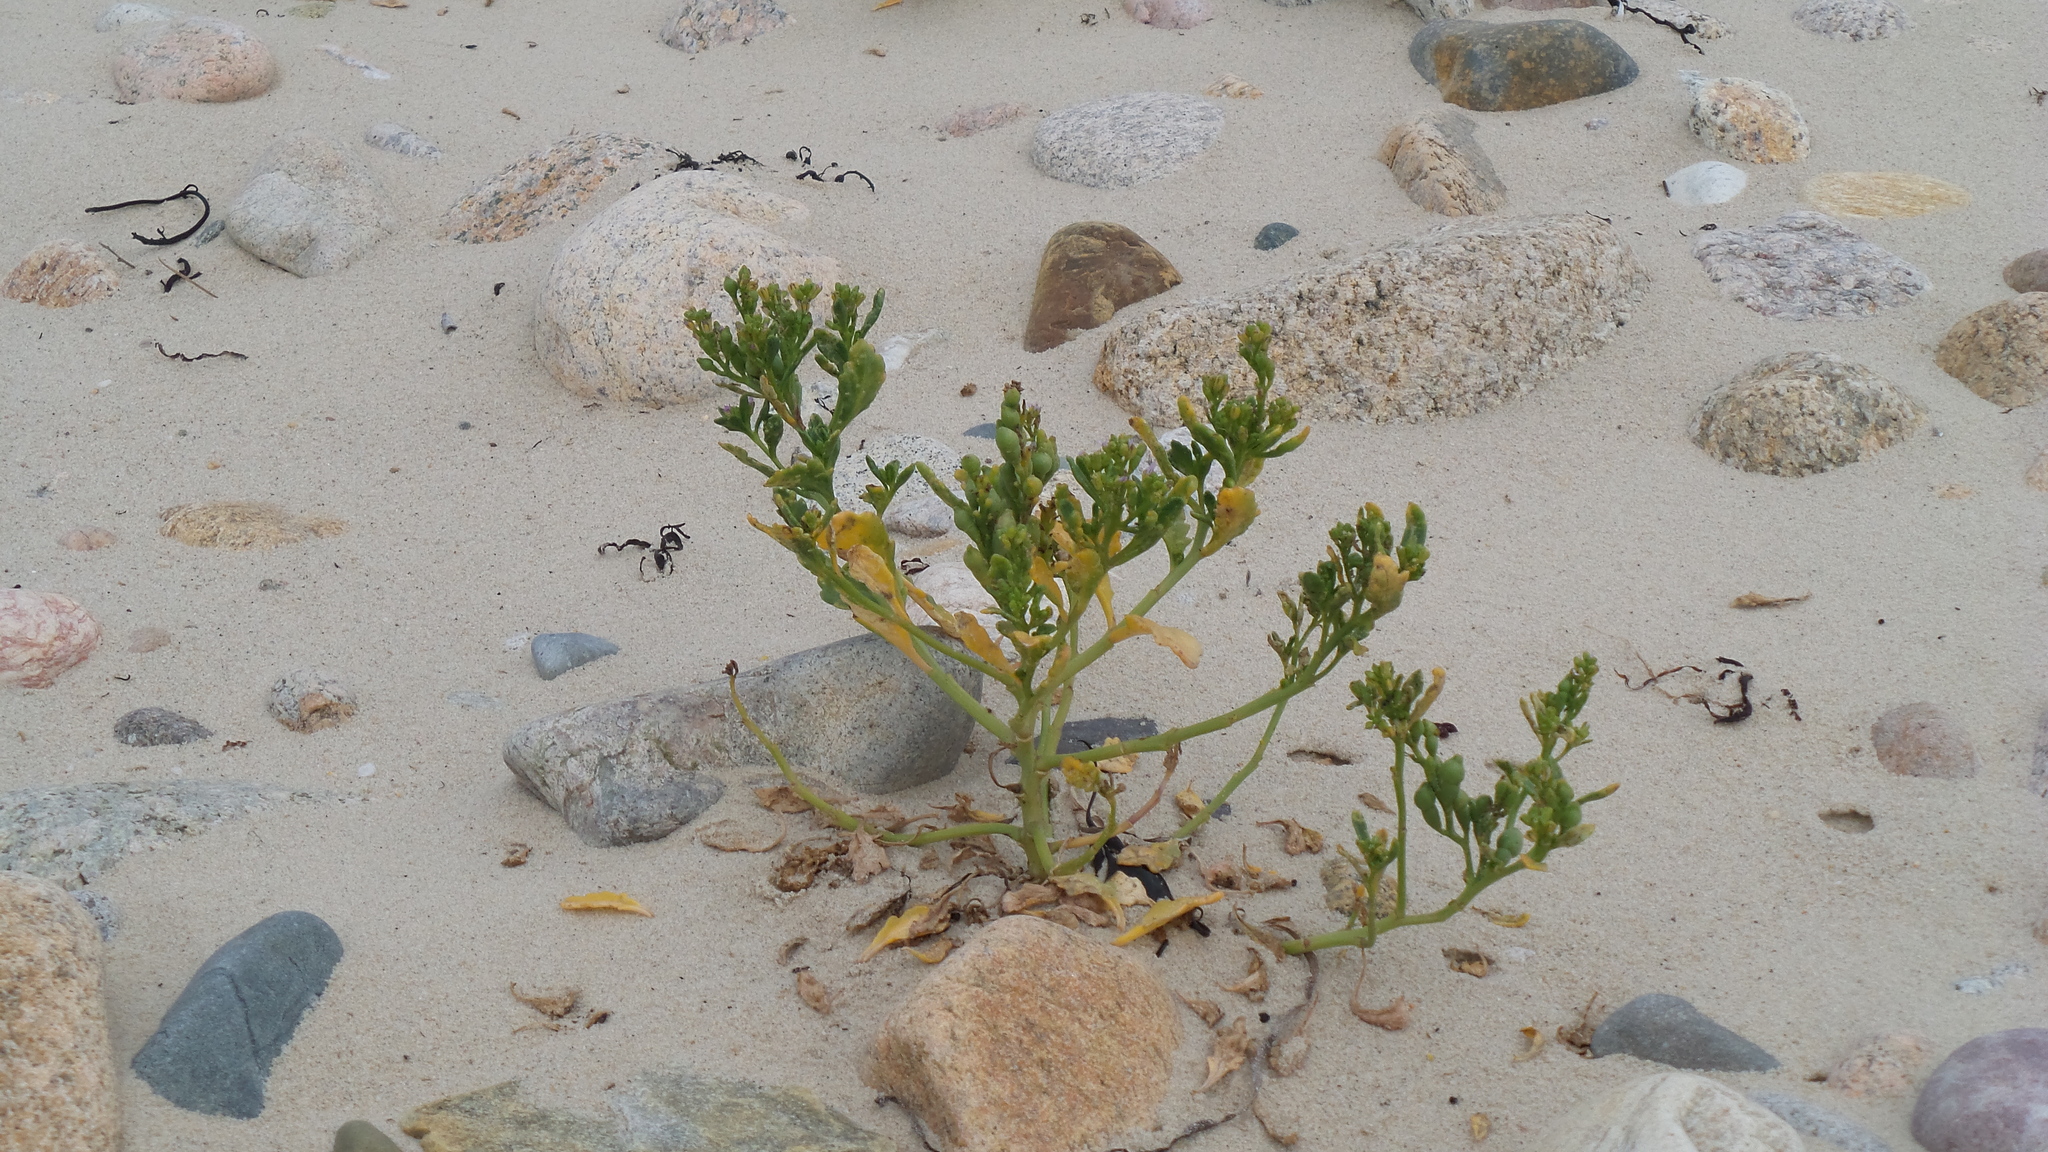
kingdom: Plantae
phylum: Tracheophyta
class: Magnoliopsida
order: Brassicales
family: Brassicaceae
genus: Cakile
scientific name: Cakile edentula
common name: American sea rocket
